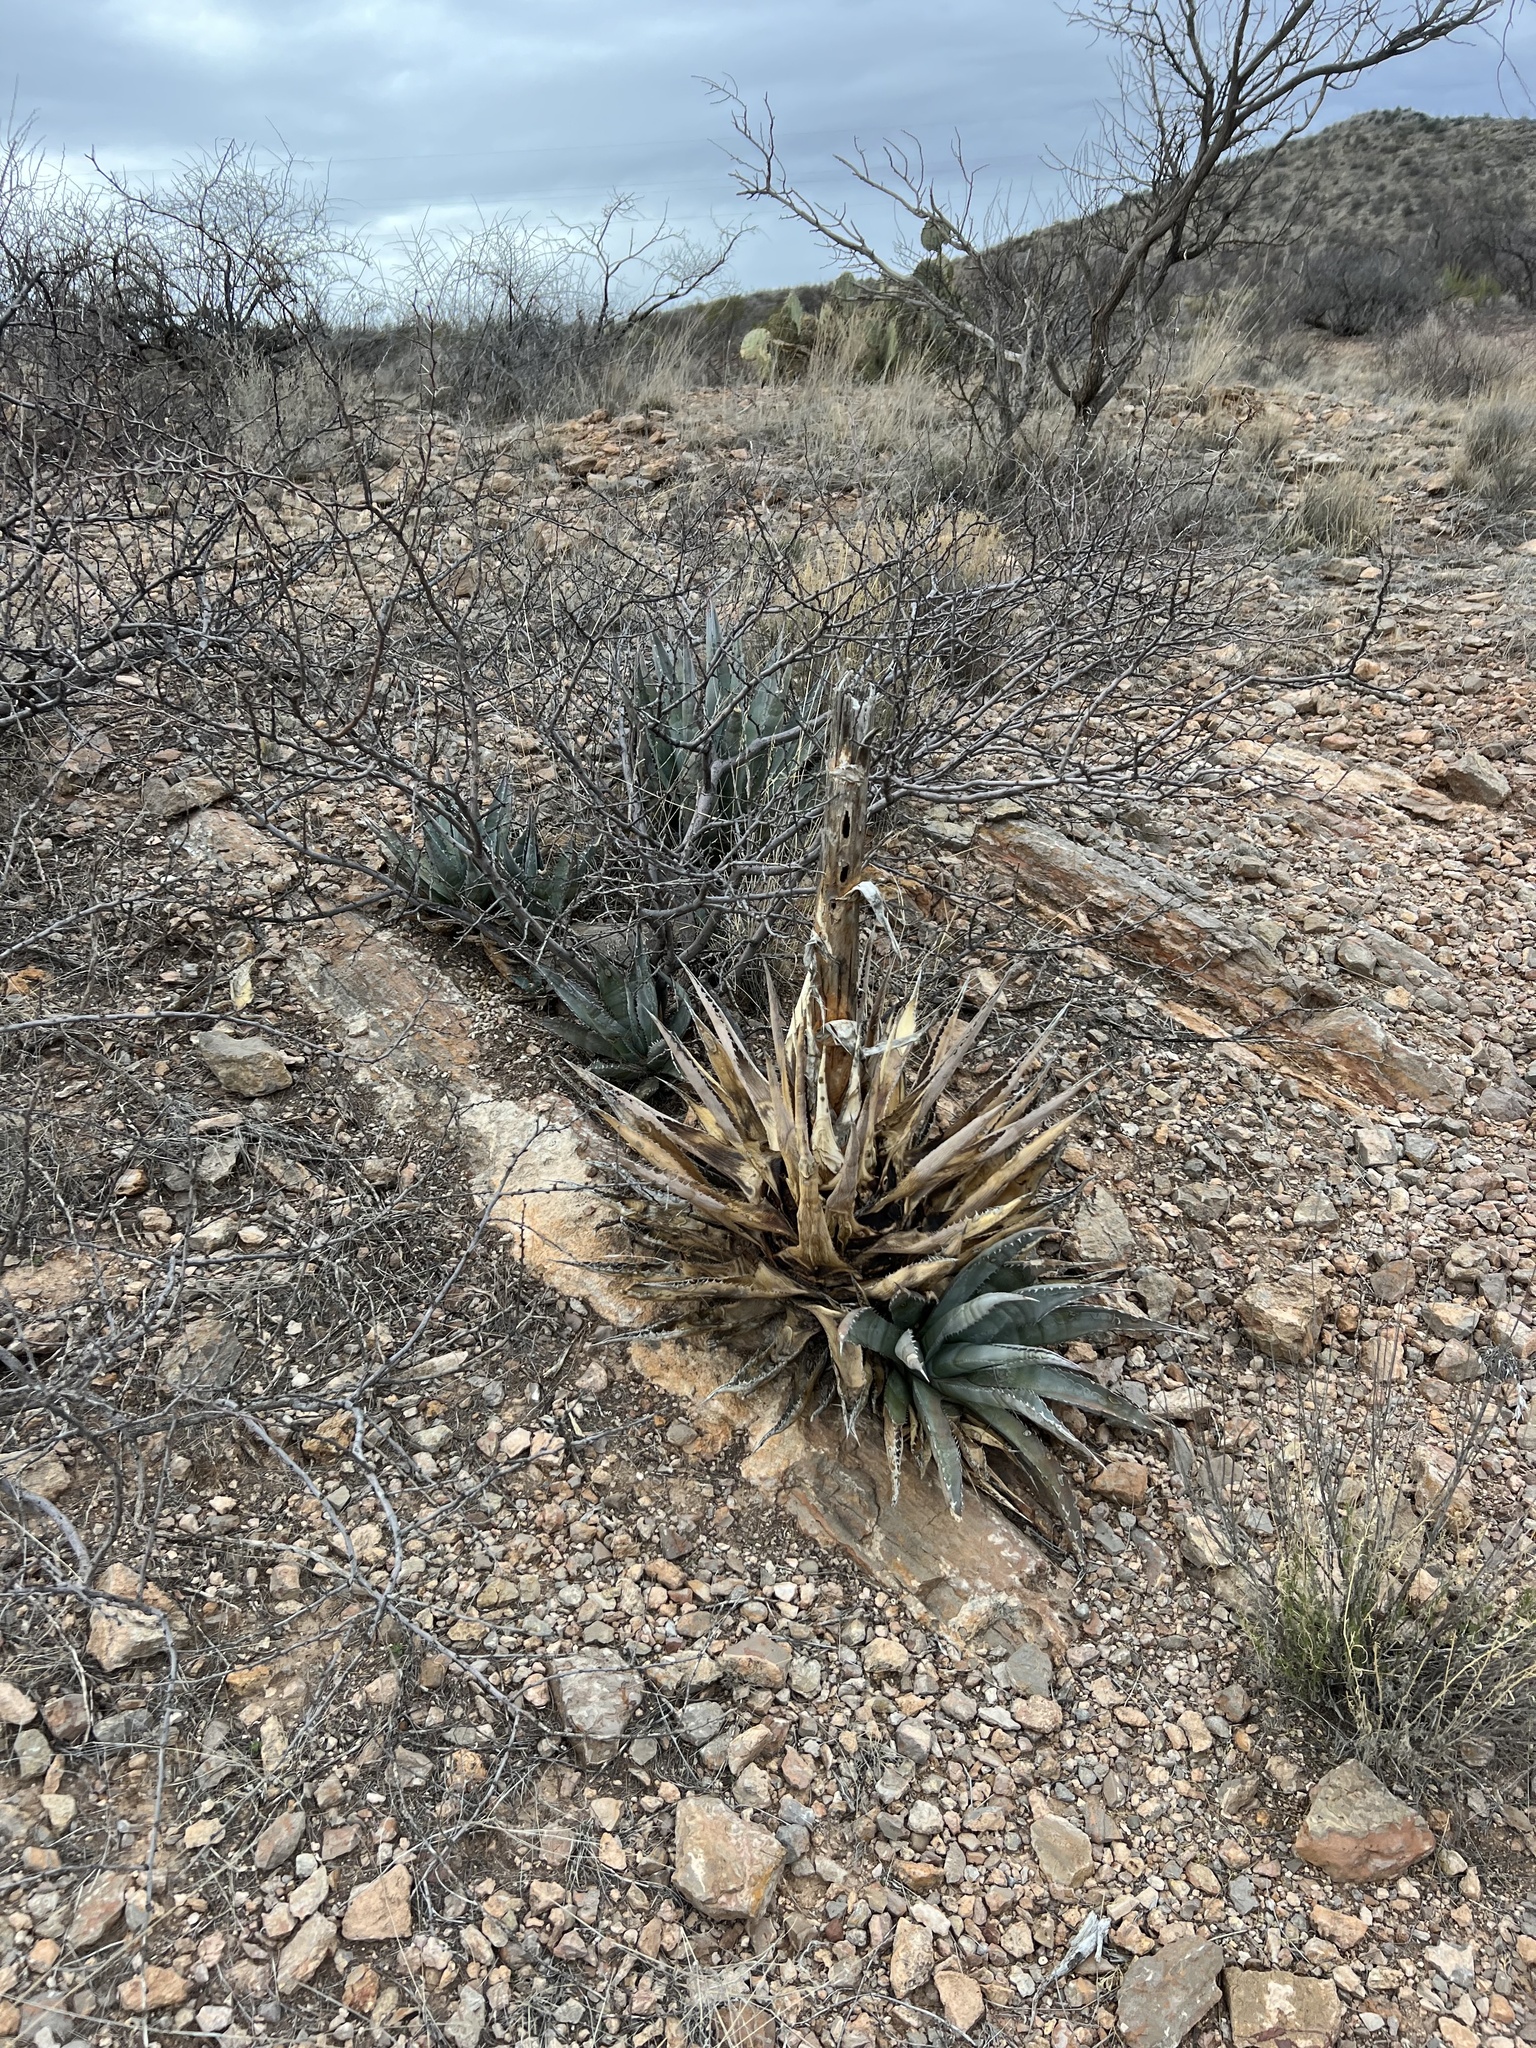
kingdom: Plantae
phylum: Tracheophyta
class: Liliopsida
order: Asparagales
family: Asparagaceae
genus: Agave
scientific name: Agave palmeri
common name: Palmer agave
